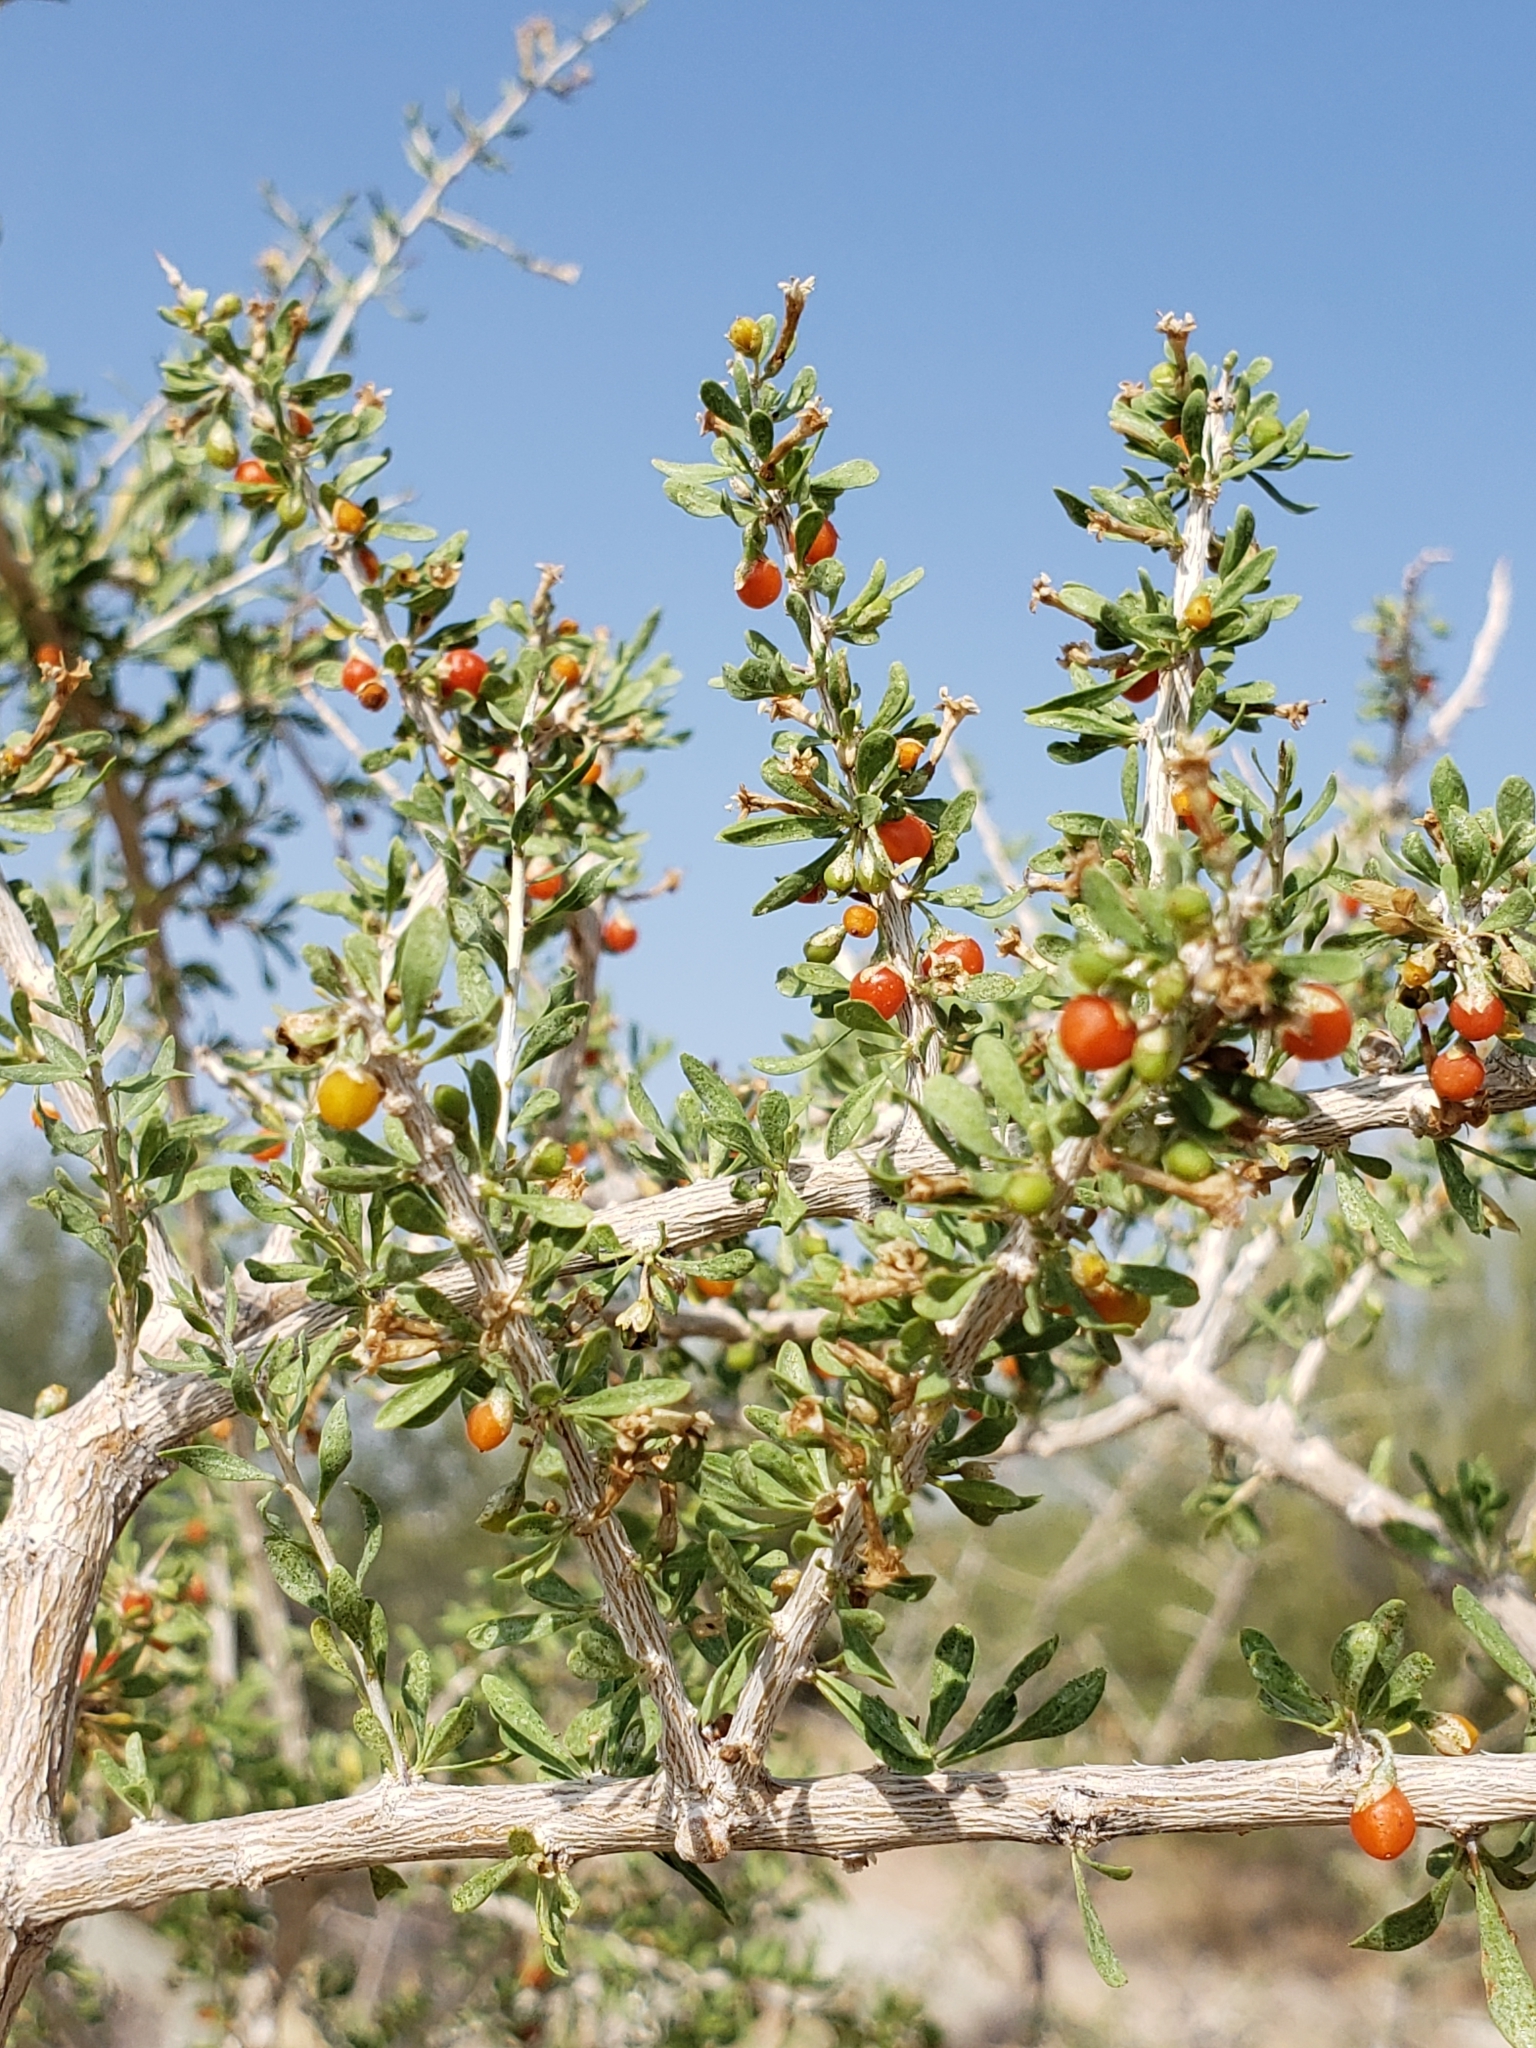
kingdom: Plantae
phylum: Tracheophyta
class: Magnoliopsida
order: Solanales
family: Solanaceae
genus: Lycium
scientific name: Lycium andersonii
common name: Water-jacket
